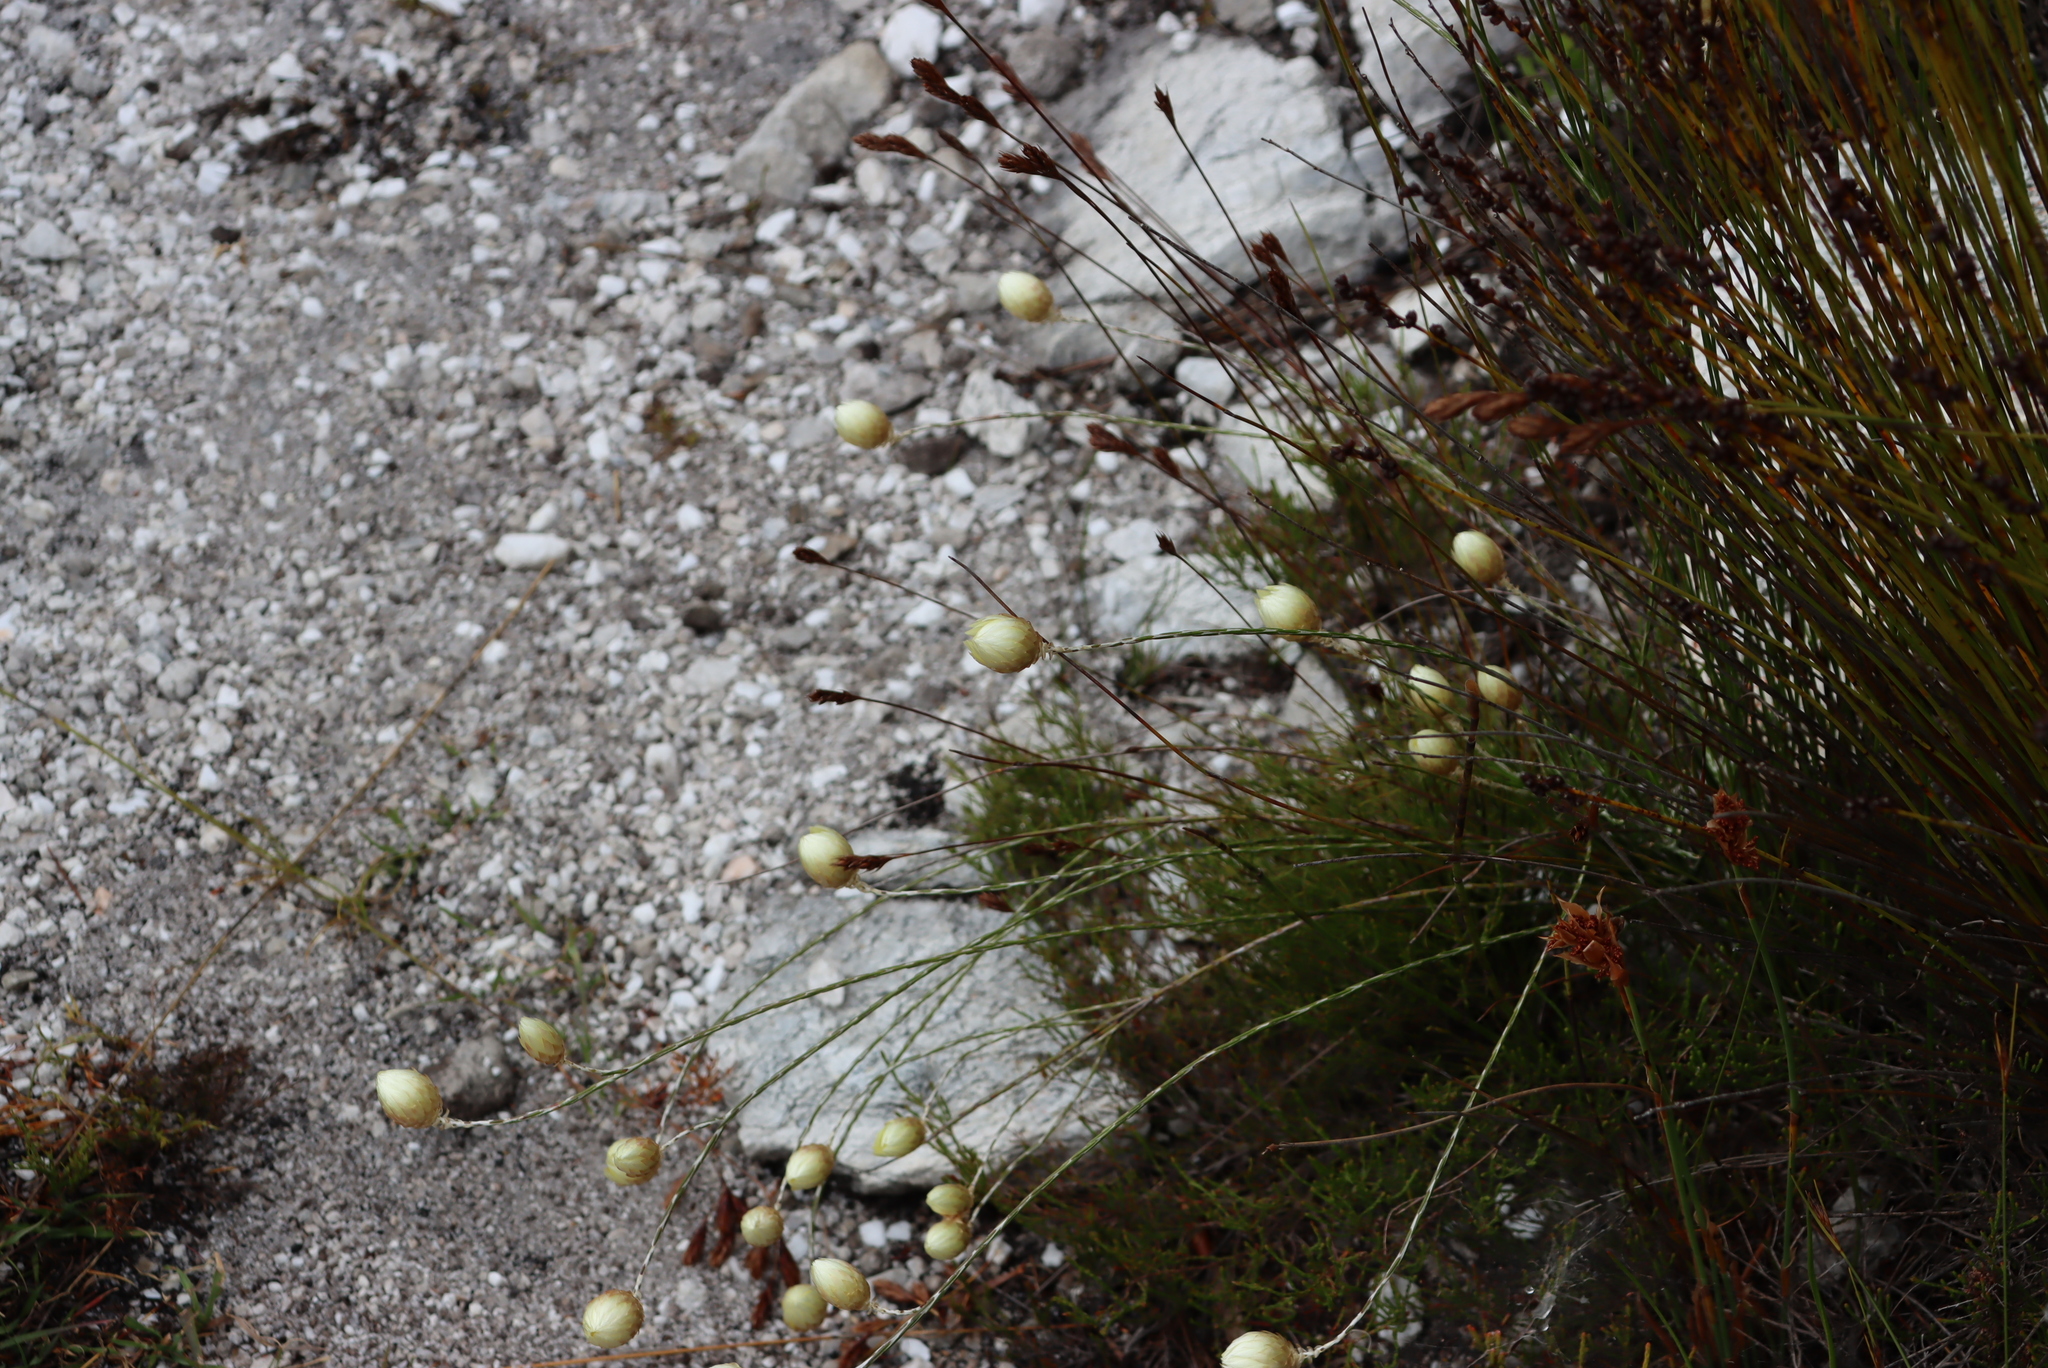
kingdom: Plantae
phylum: Tracheophyta
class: Magnoliopsida
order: Asterales
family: Asteraceae
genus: Edmondia
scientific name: Edmondia sesamoides
